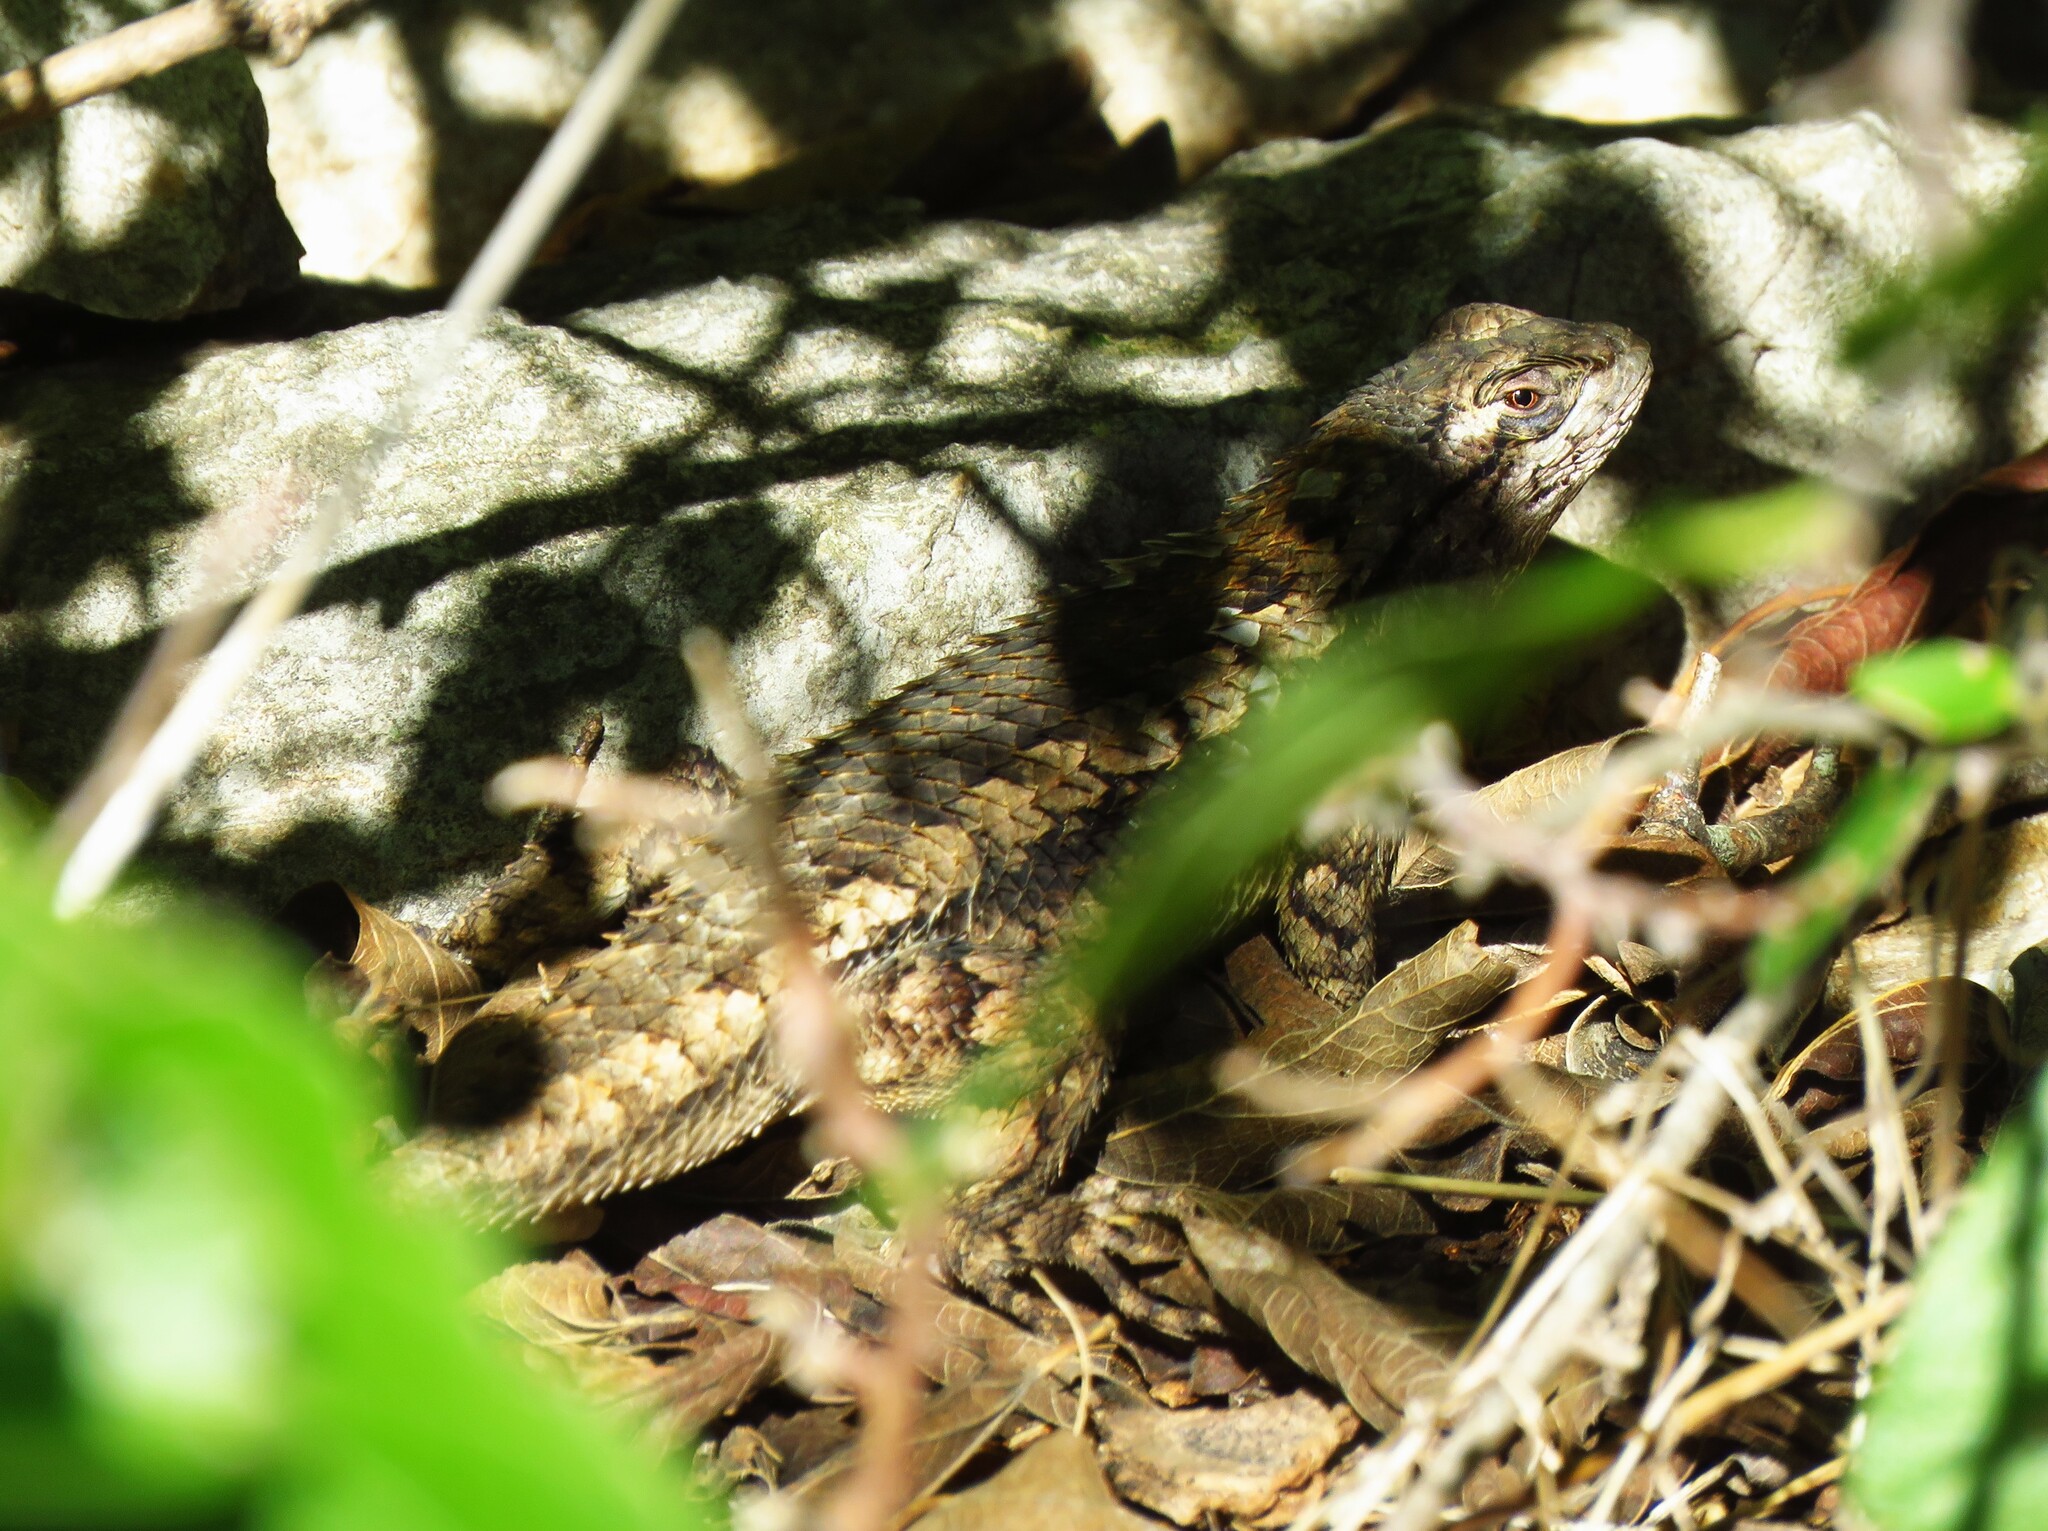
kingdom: Animalia
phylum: Chordata
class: Squamata
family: Phrynosomatidae
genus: Sceloporus
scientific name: Sceloporus olivaceus
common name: Texas spiny lizard
